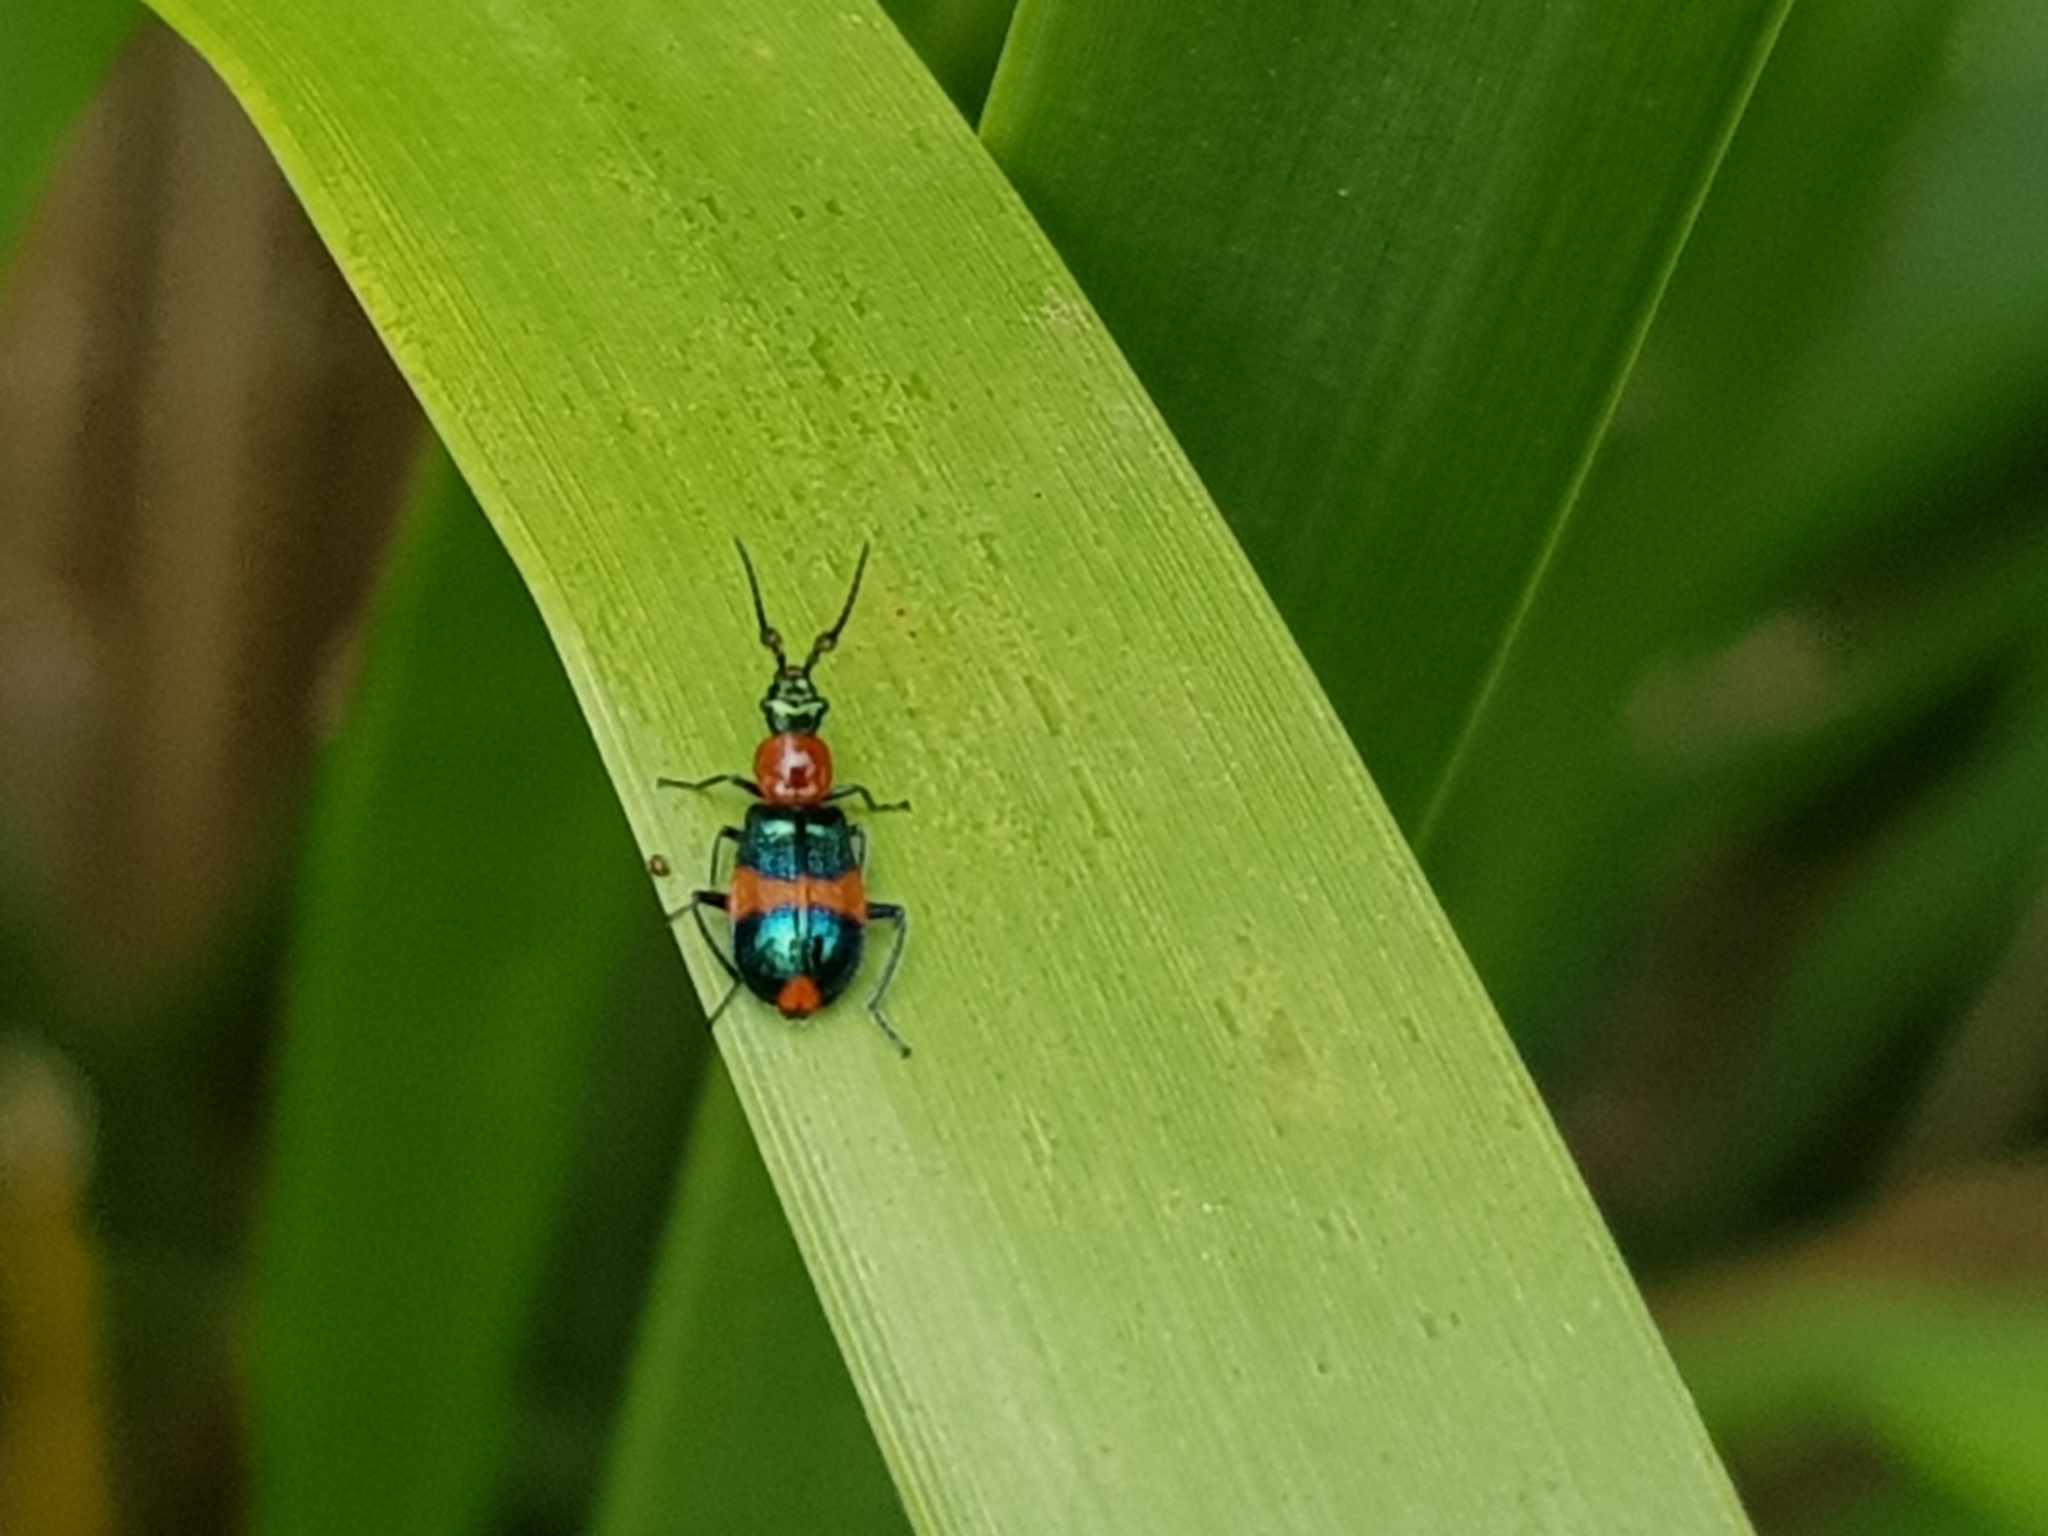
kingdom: Animalia
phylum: Arthropoda
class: Insecta
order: Coleoptera
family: Melyridae
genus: Dicranolaius
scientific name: Dicranolaius bellulus
